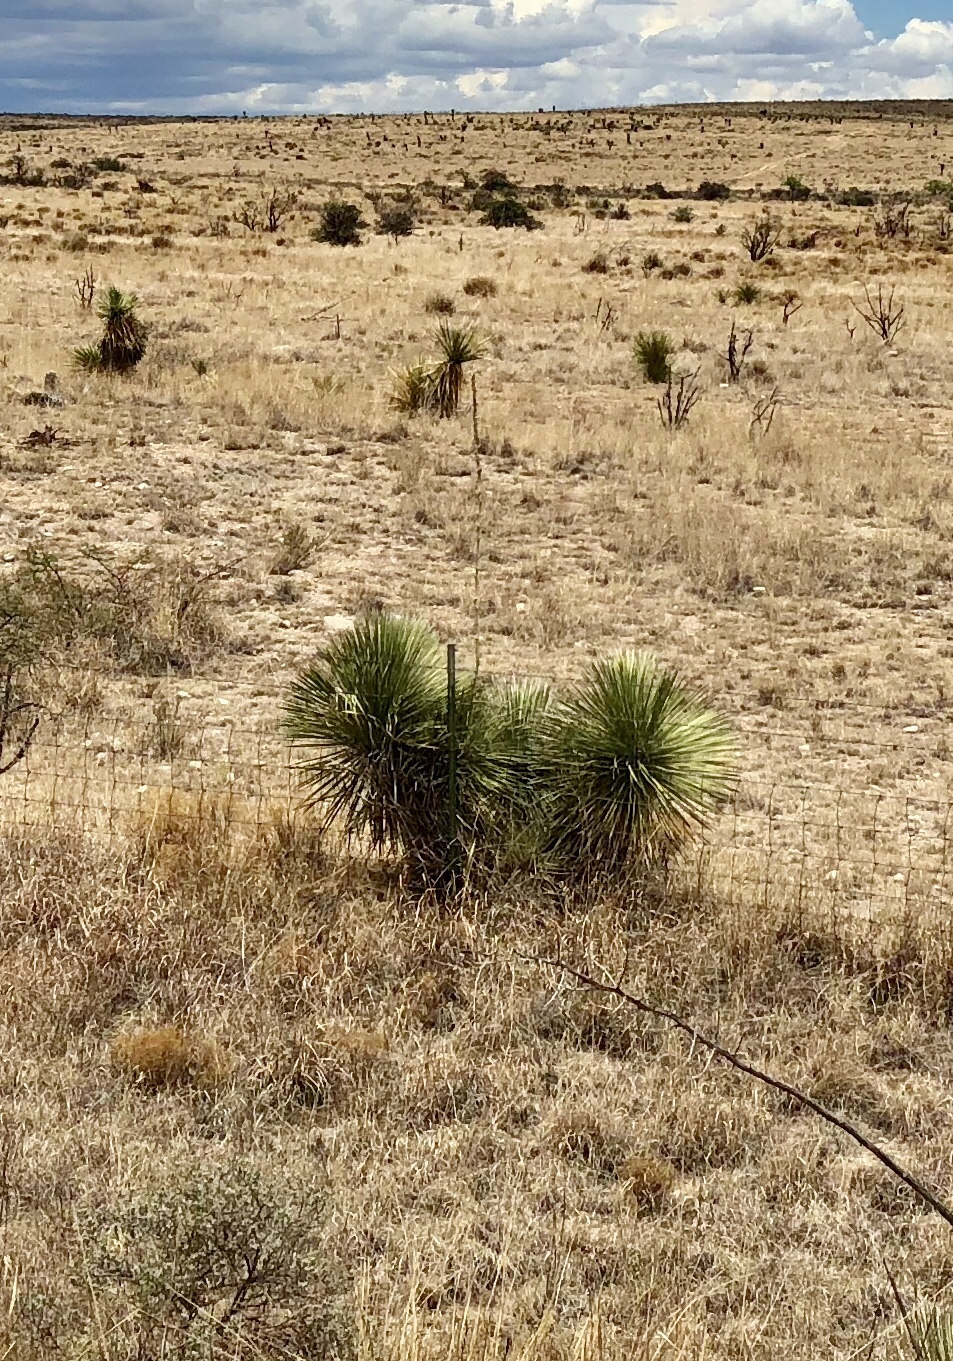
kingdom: Plantae
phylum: Tracheophyta
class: Liliopsida
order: Asparagales
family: Asparagaceae
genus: Yucca
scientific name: Yucca elata
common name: Palmella
